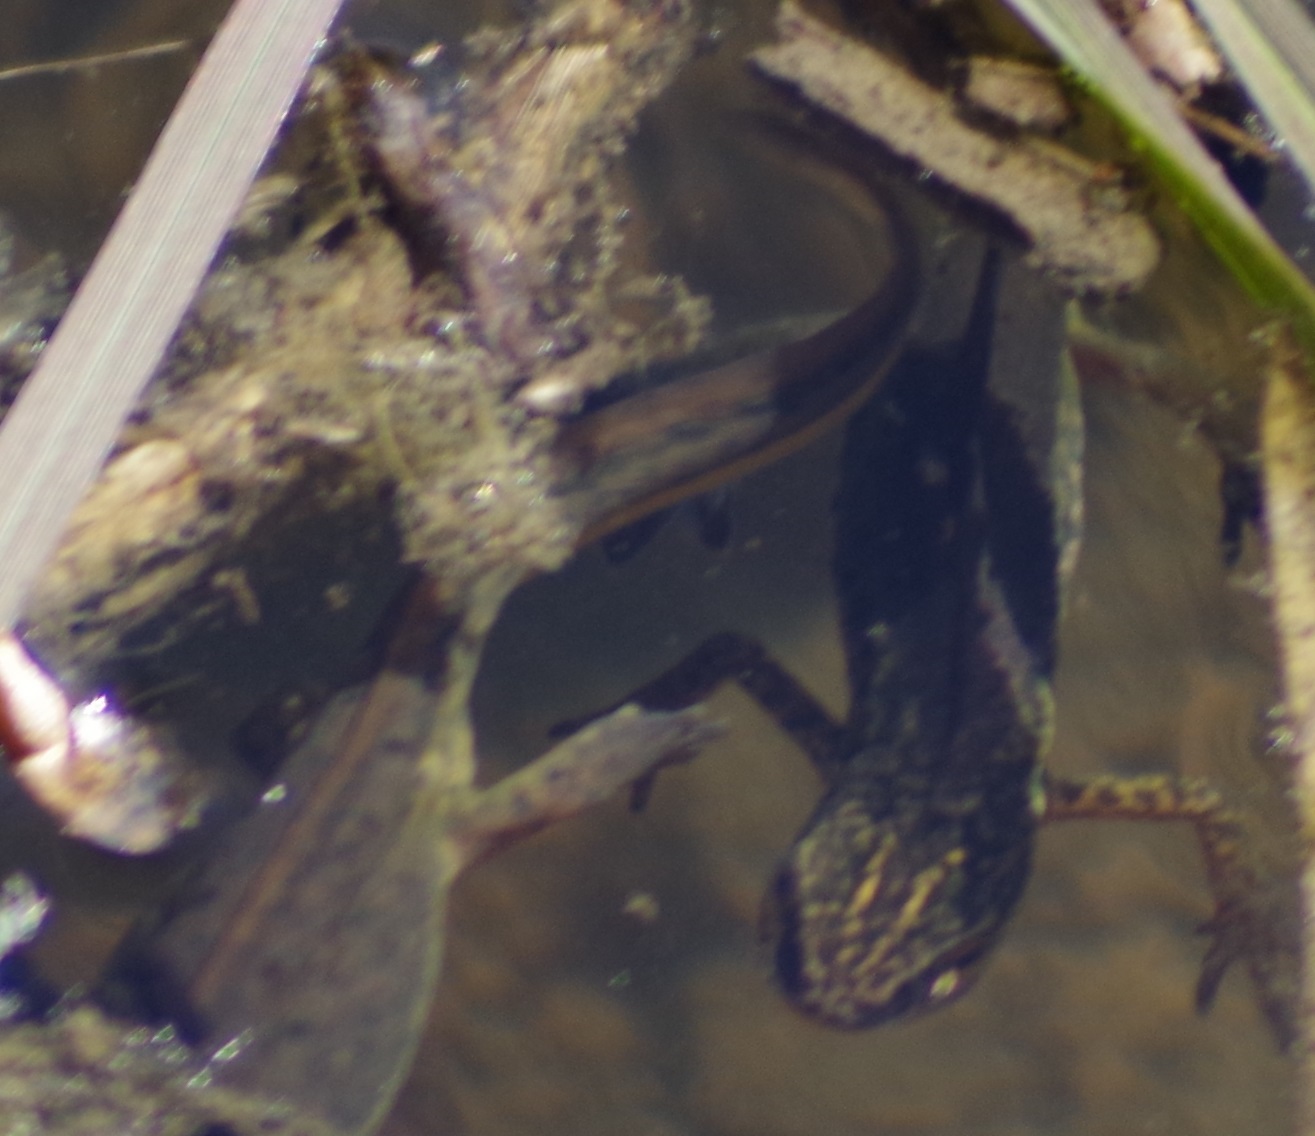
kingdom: Animalia
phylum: Chordata
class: Amphibia
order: Caudata
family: Salamandridae
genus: Lissotriton
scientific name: Lissotriton helveticus
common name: Palmate newt
